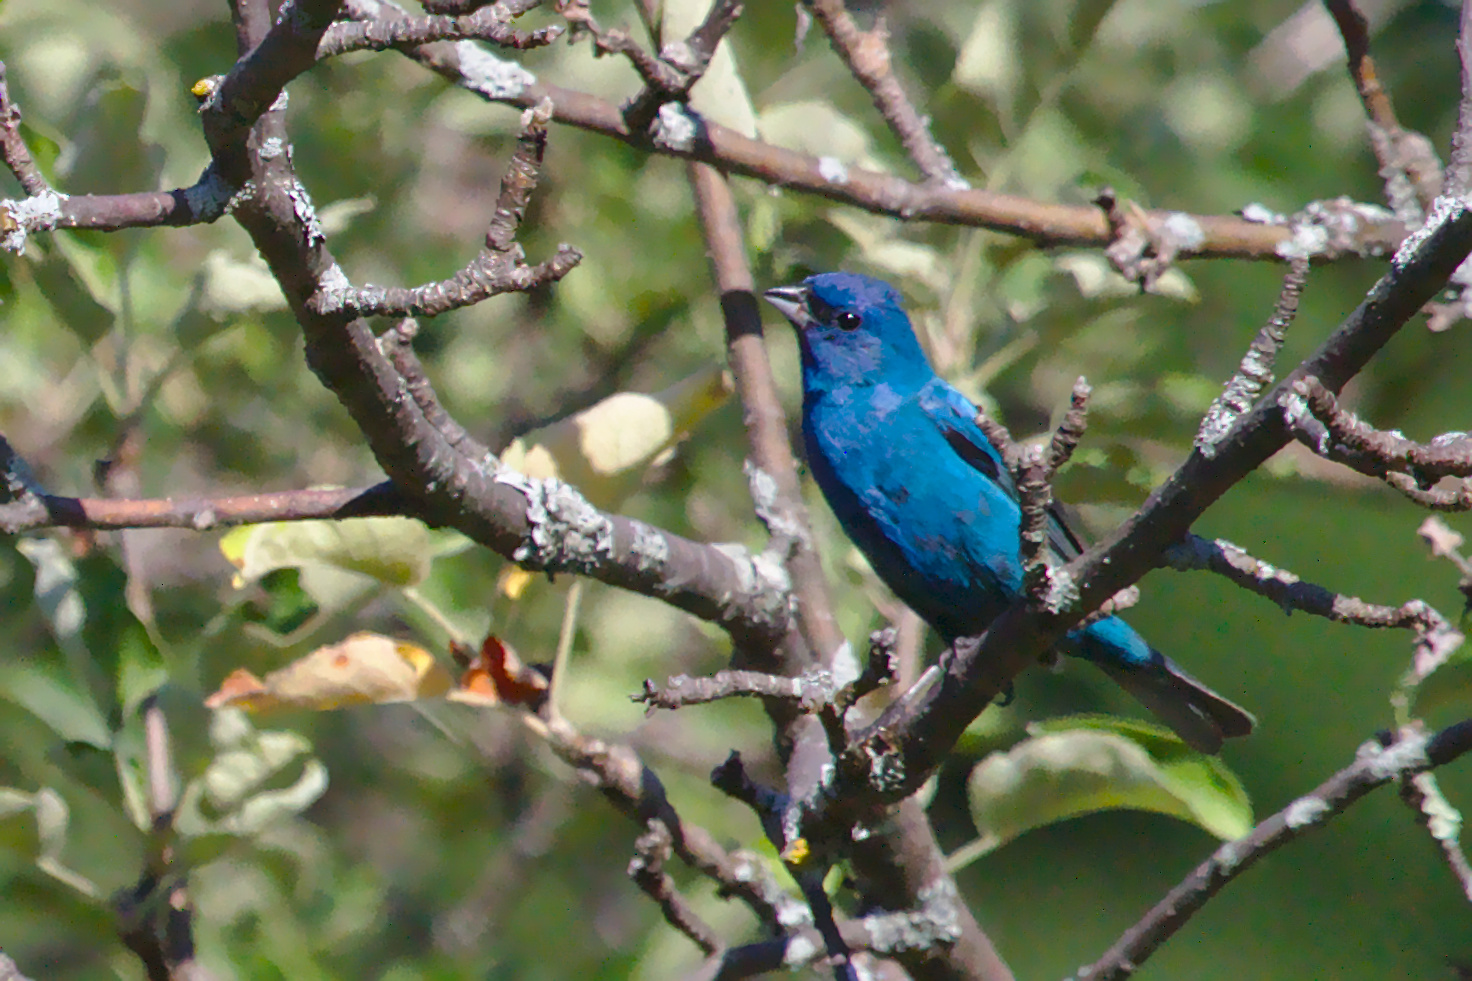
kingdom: Animalia
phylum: Chordata
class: Aves
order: Passeriformes
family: Cardinalidae
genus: Passerina
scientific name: Passerina cyanea
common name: Indigo bunting
